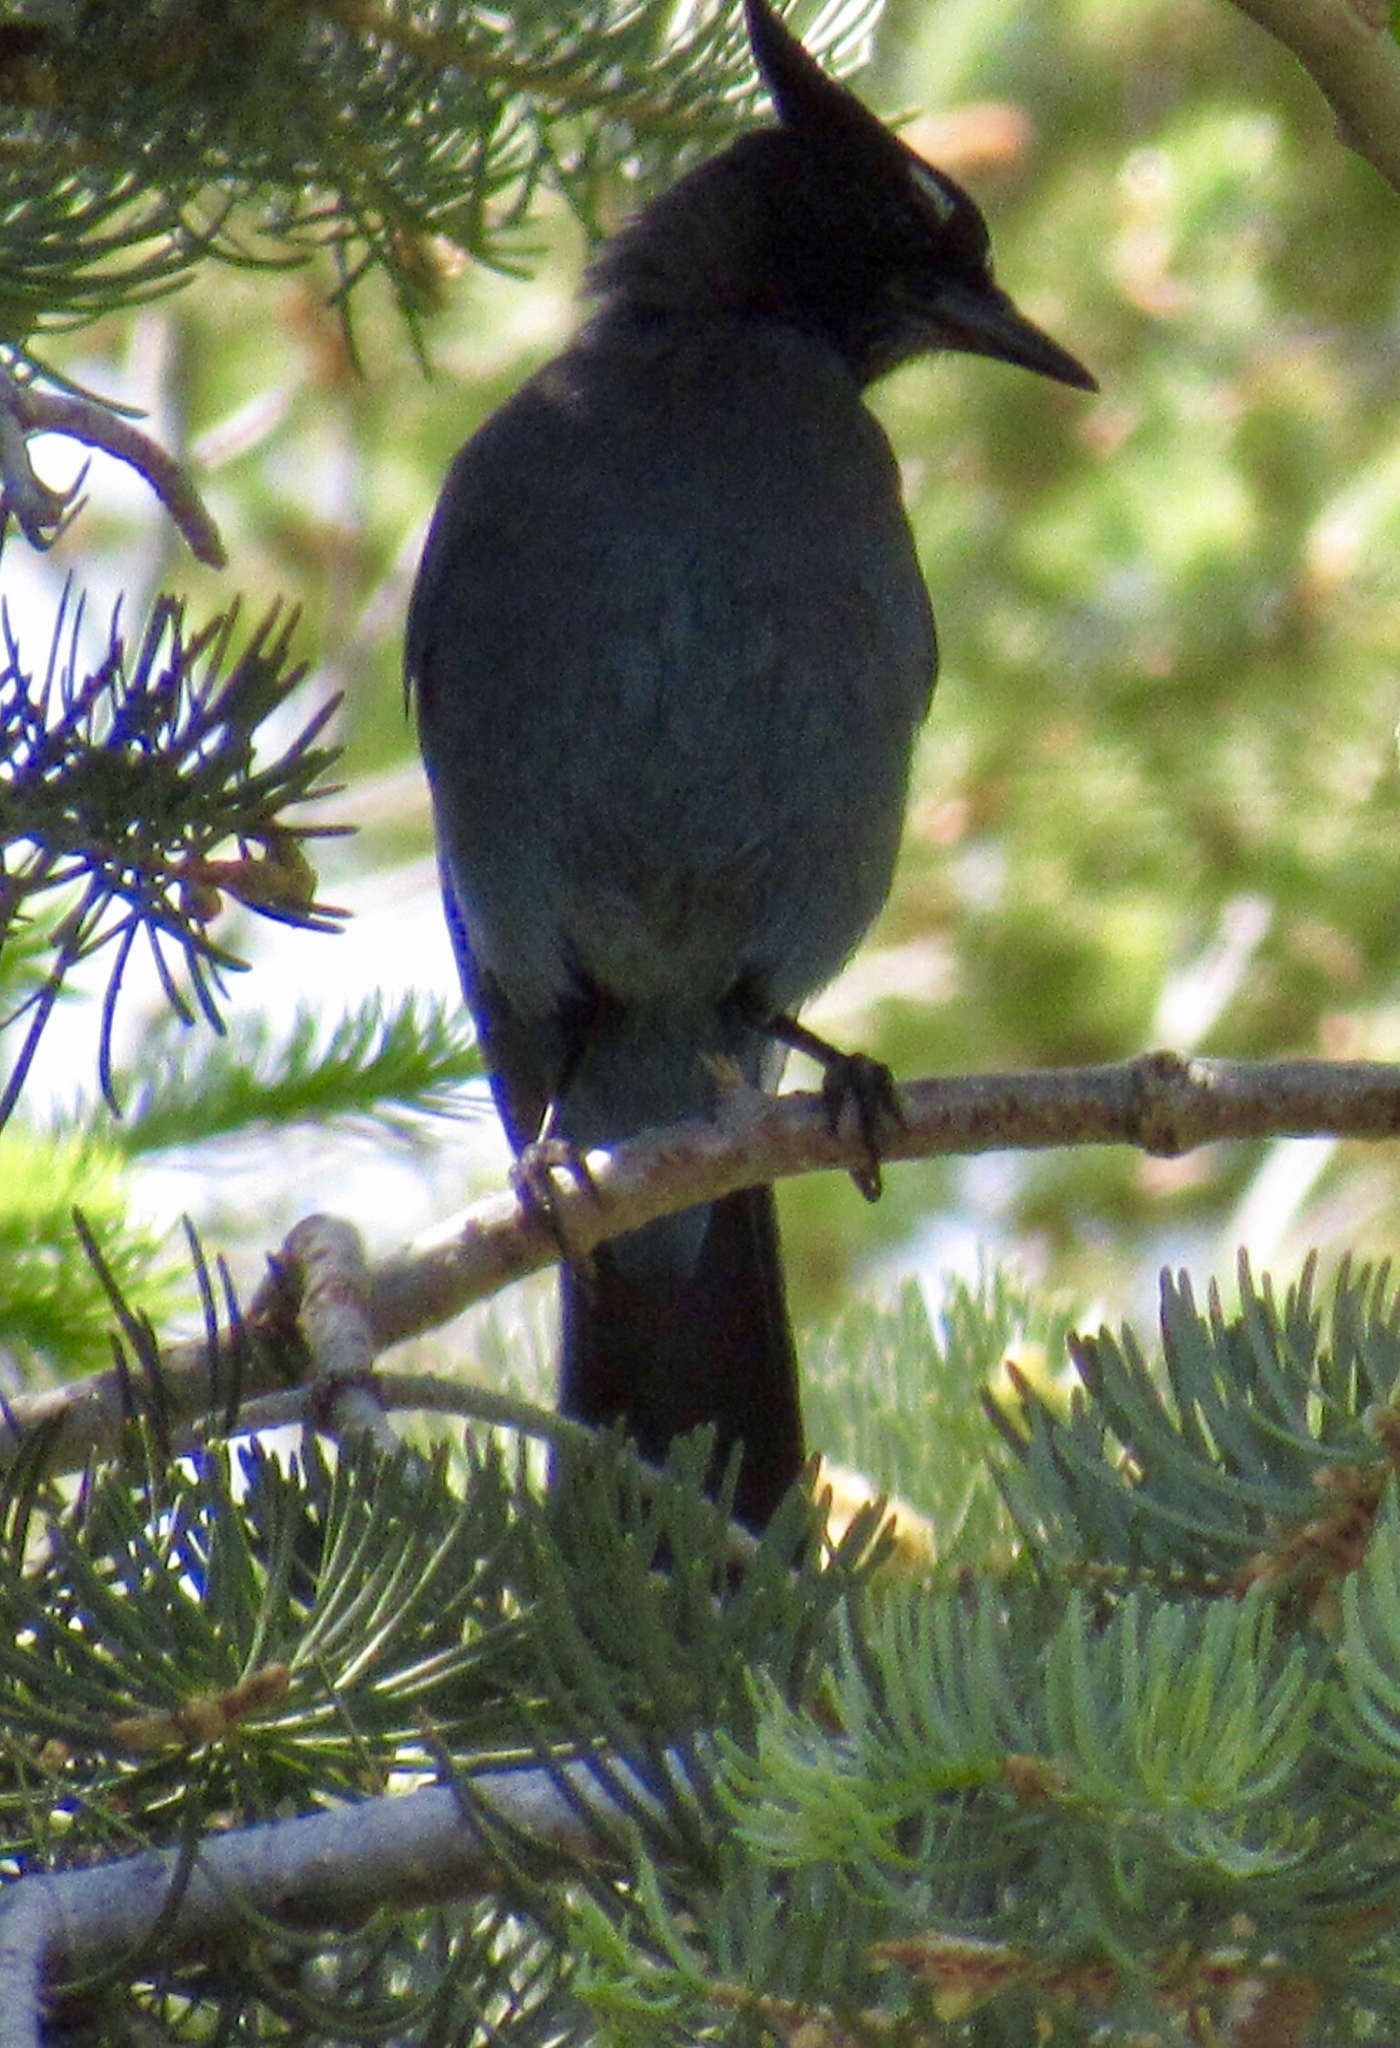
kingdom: Animalia
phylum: Chordata
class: Aves
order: Passeriformes
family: Corvidae
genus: Cyanocitta
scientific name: Cyanocitta stelleri
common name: Steller's jay
